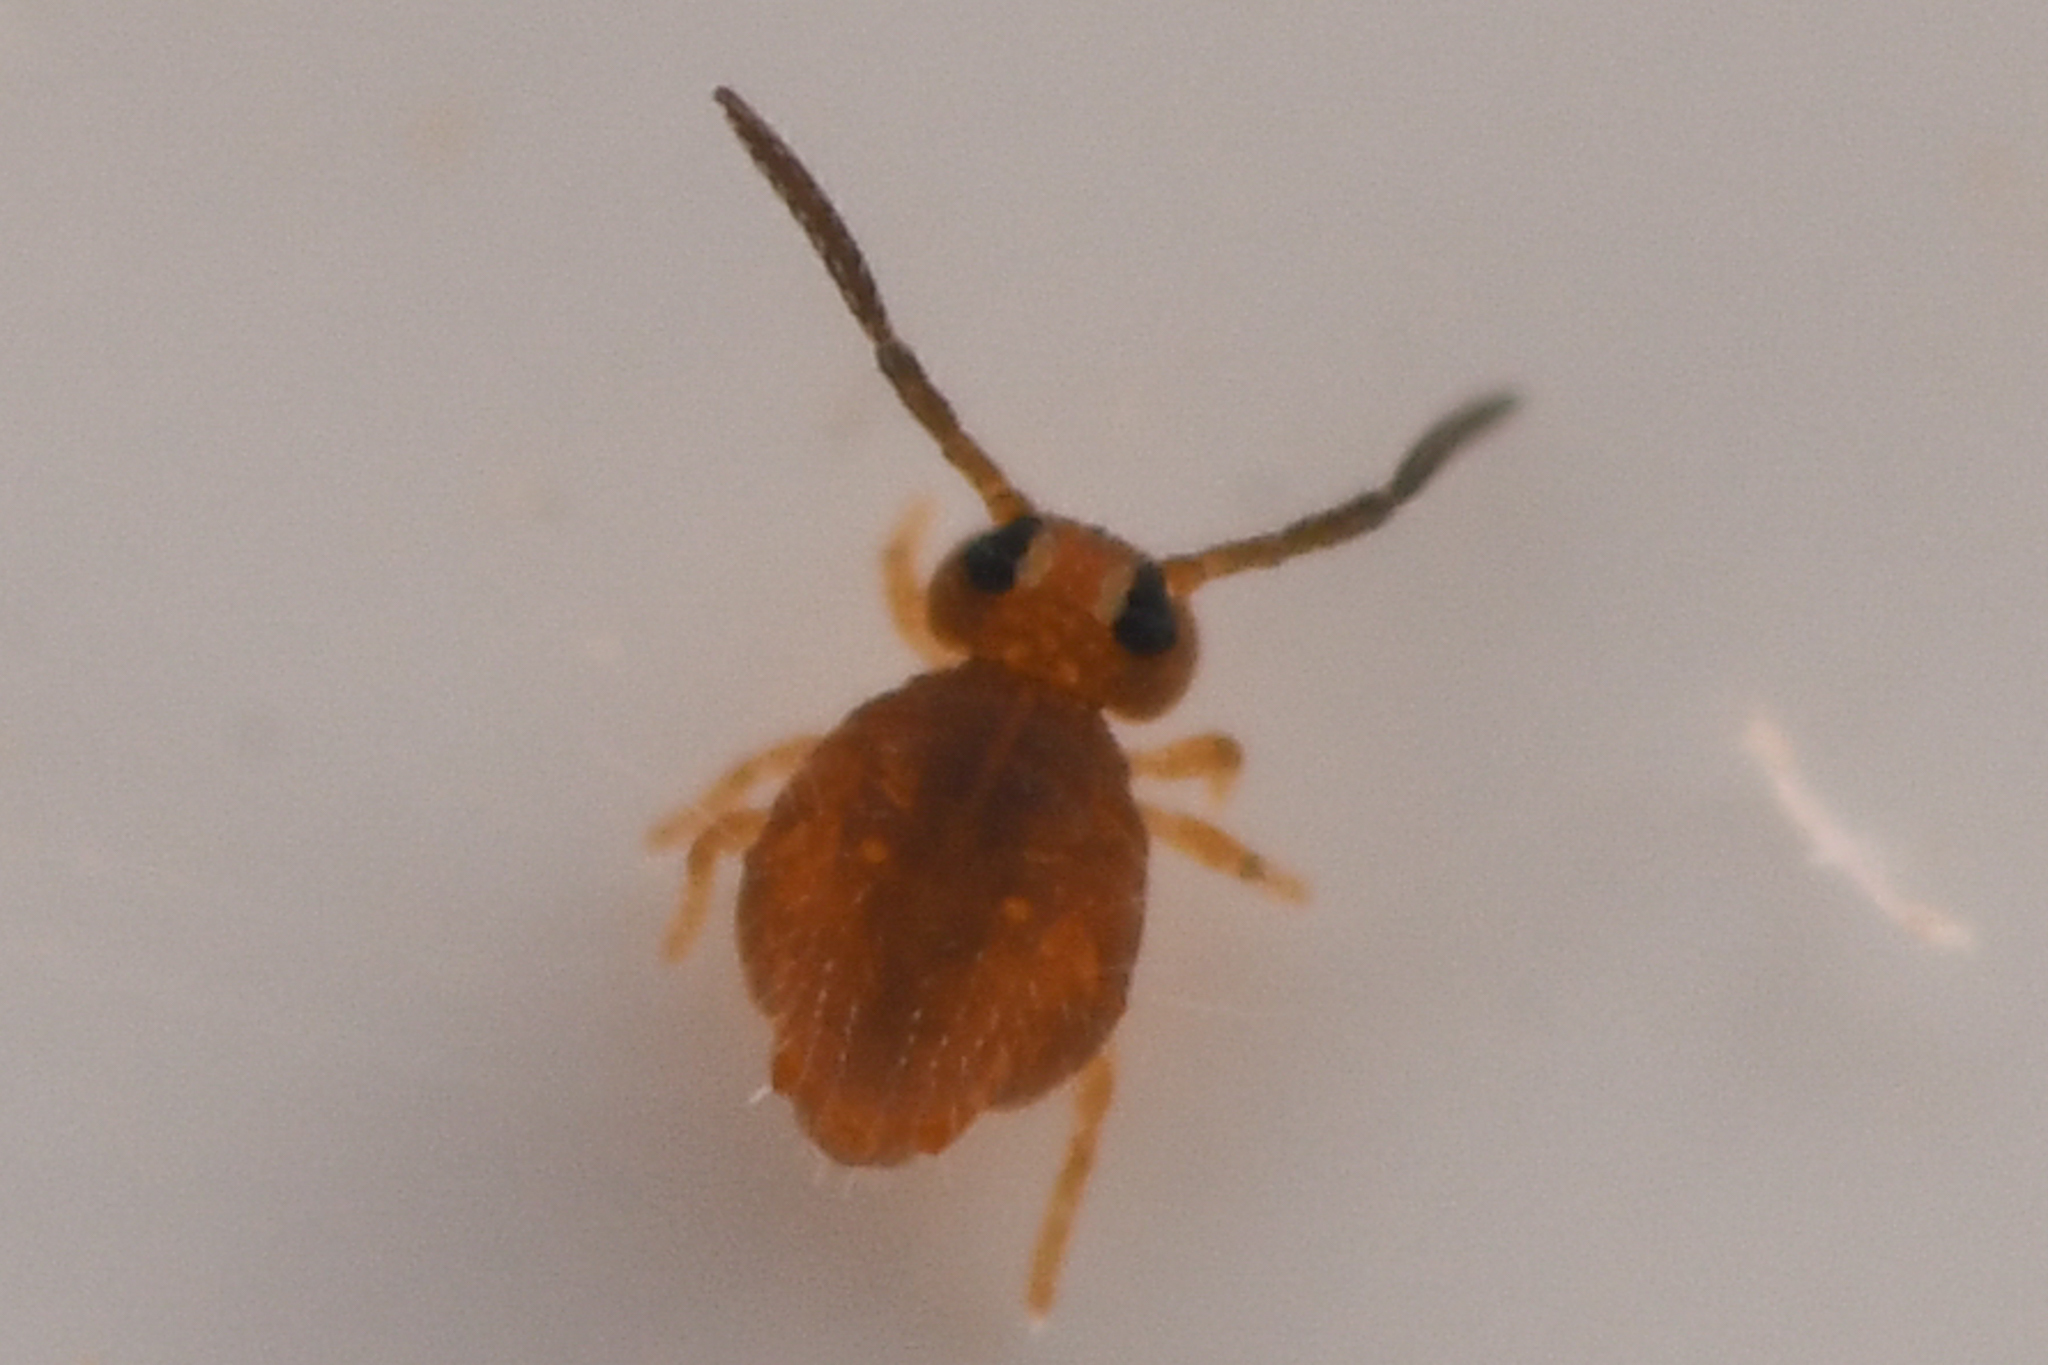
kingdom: Animalia
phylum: Arthropoda
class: Collembola
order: Symphypleona
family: Katiannidae
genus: Sminthurinus
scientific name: Sminthurinus henshawi
